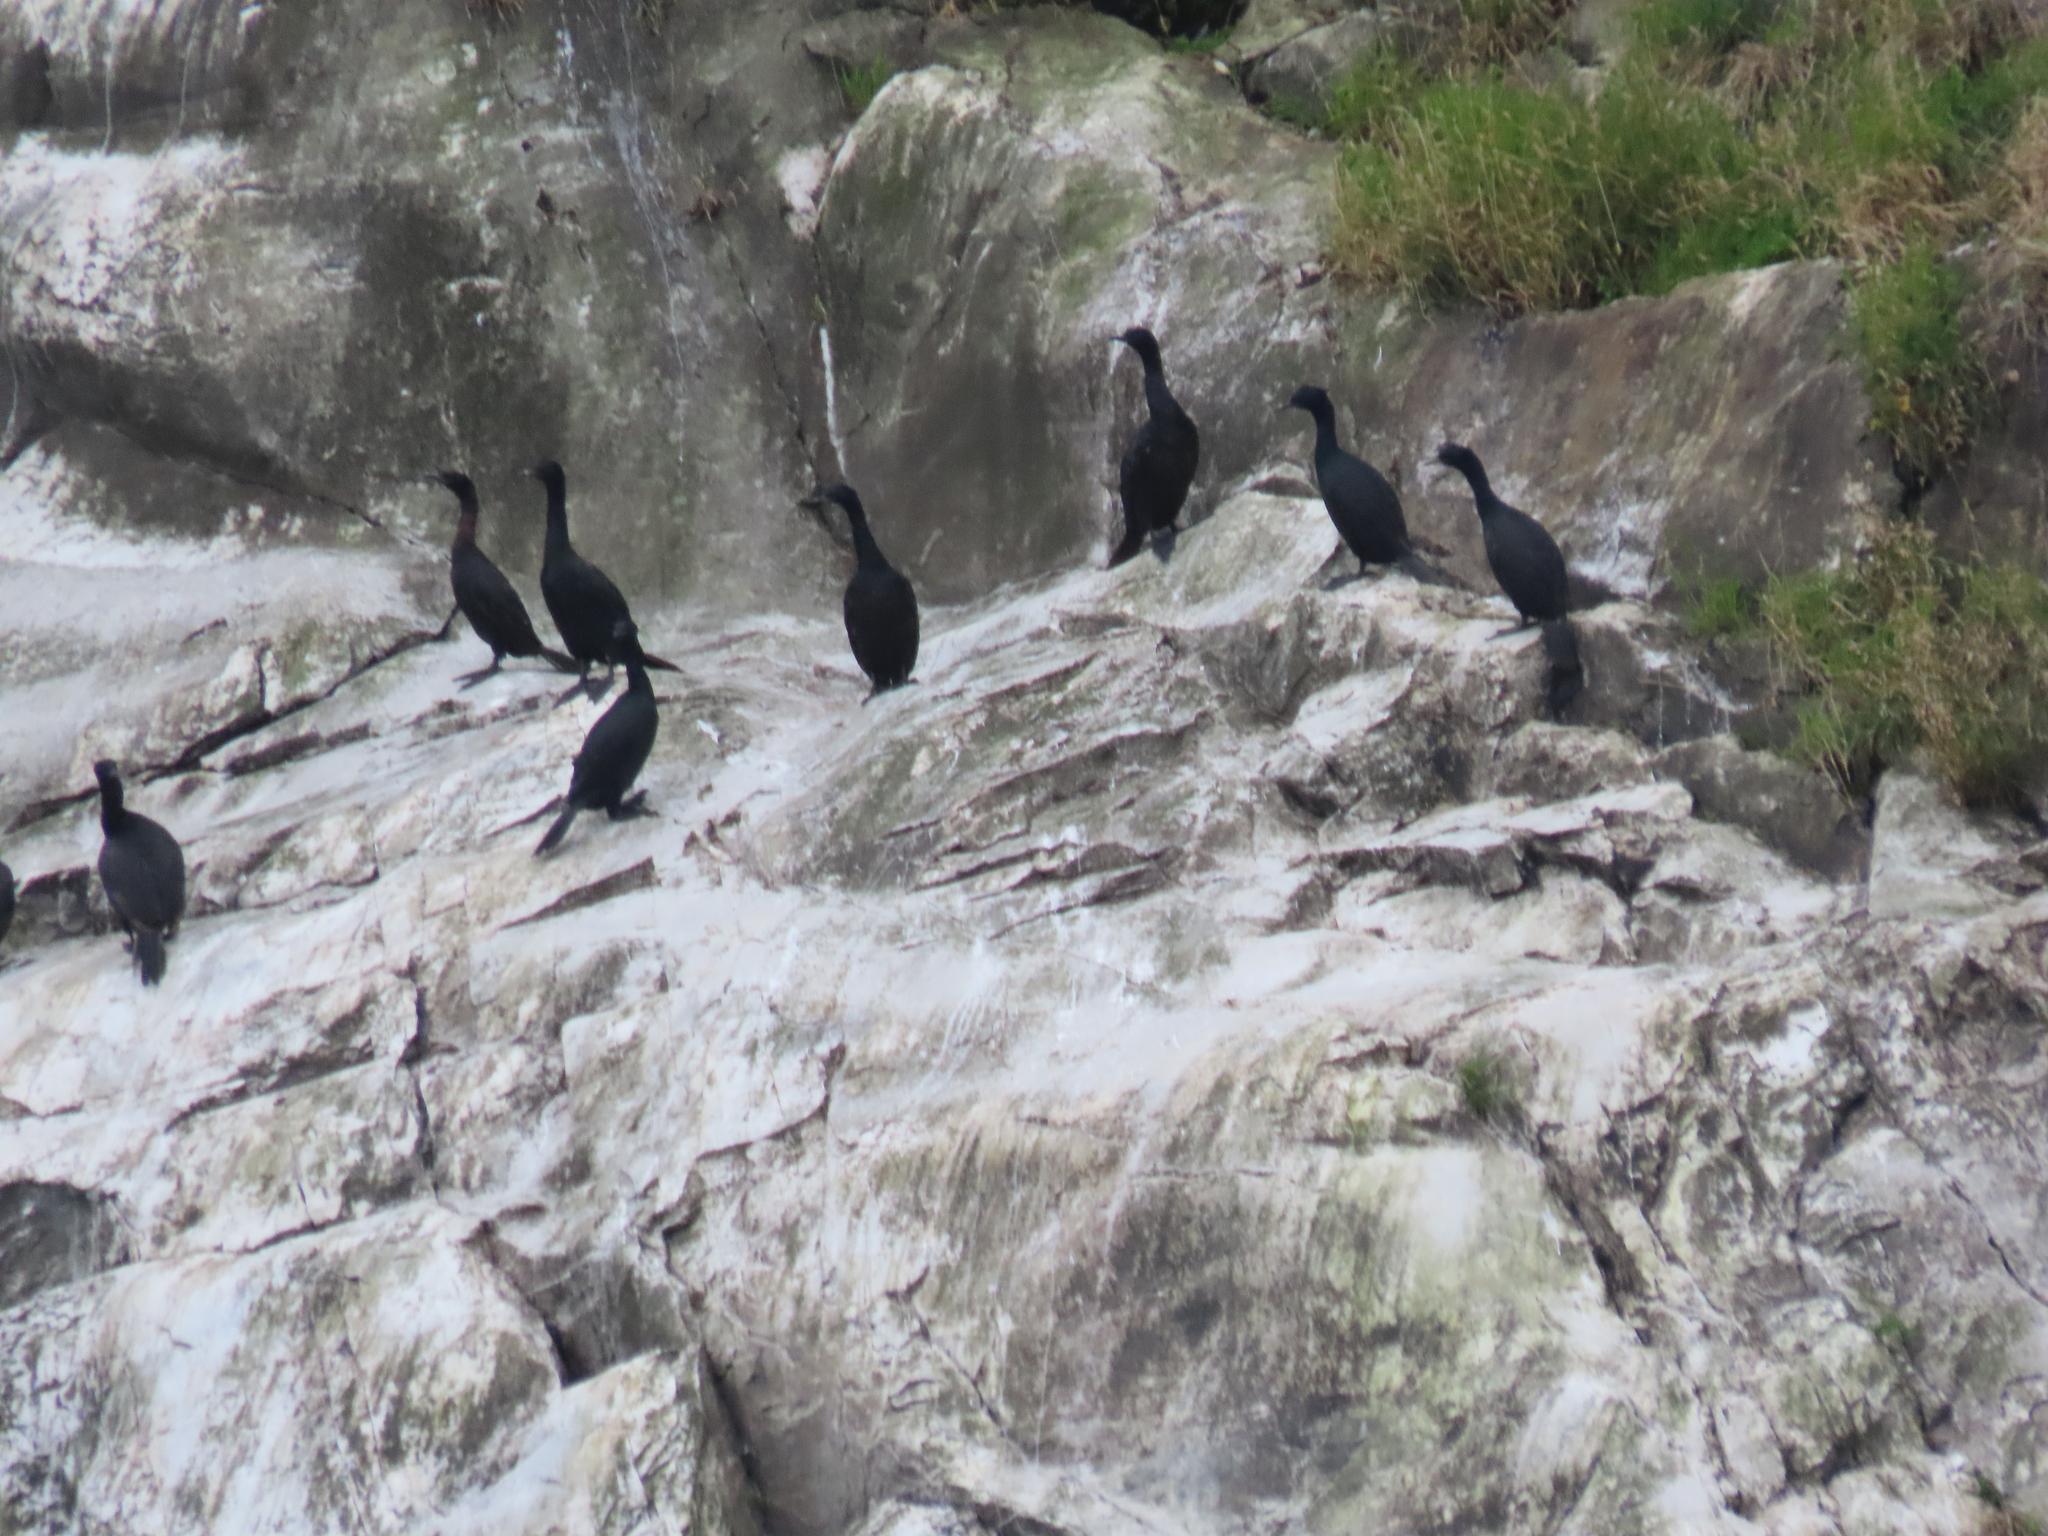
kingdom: Animalia
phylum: Chordata
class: Aves
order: Suliformes
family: Phalacrocoracidae
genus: Phalacrocorax
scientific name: Phalacrocorax pelagicus
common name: Pelagic cormorant
